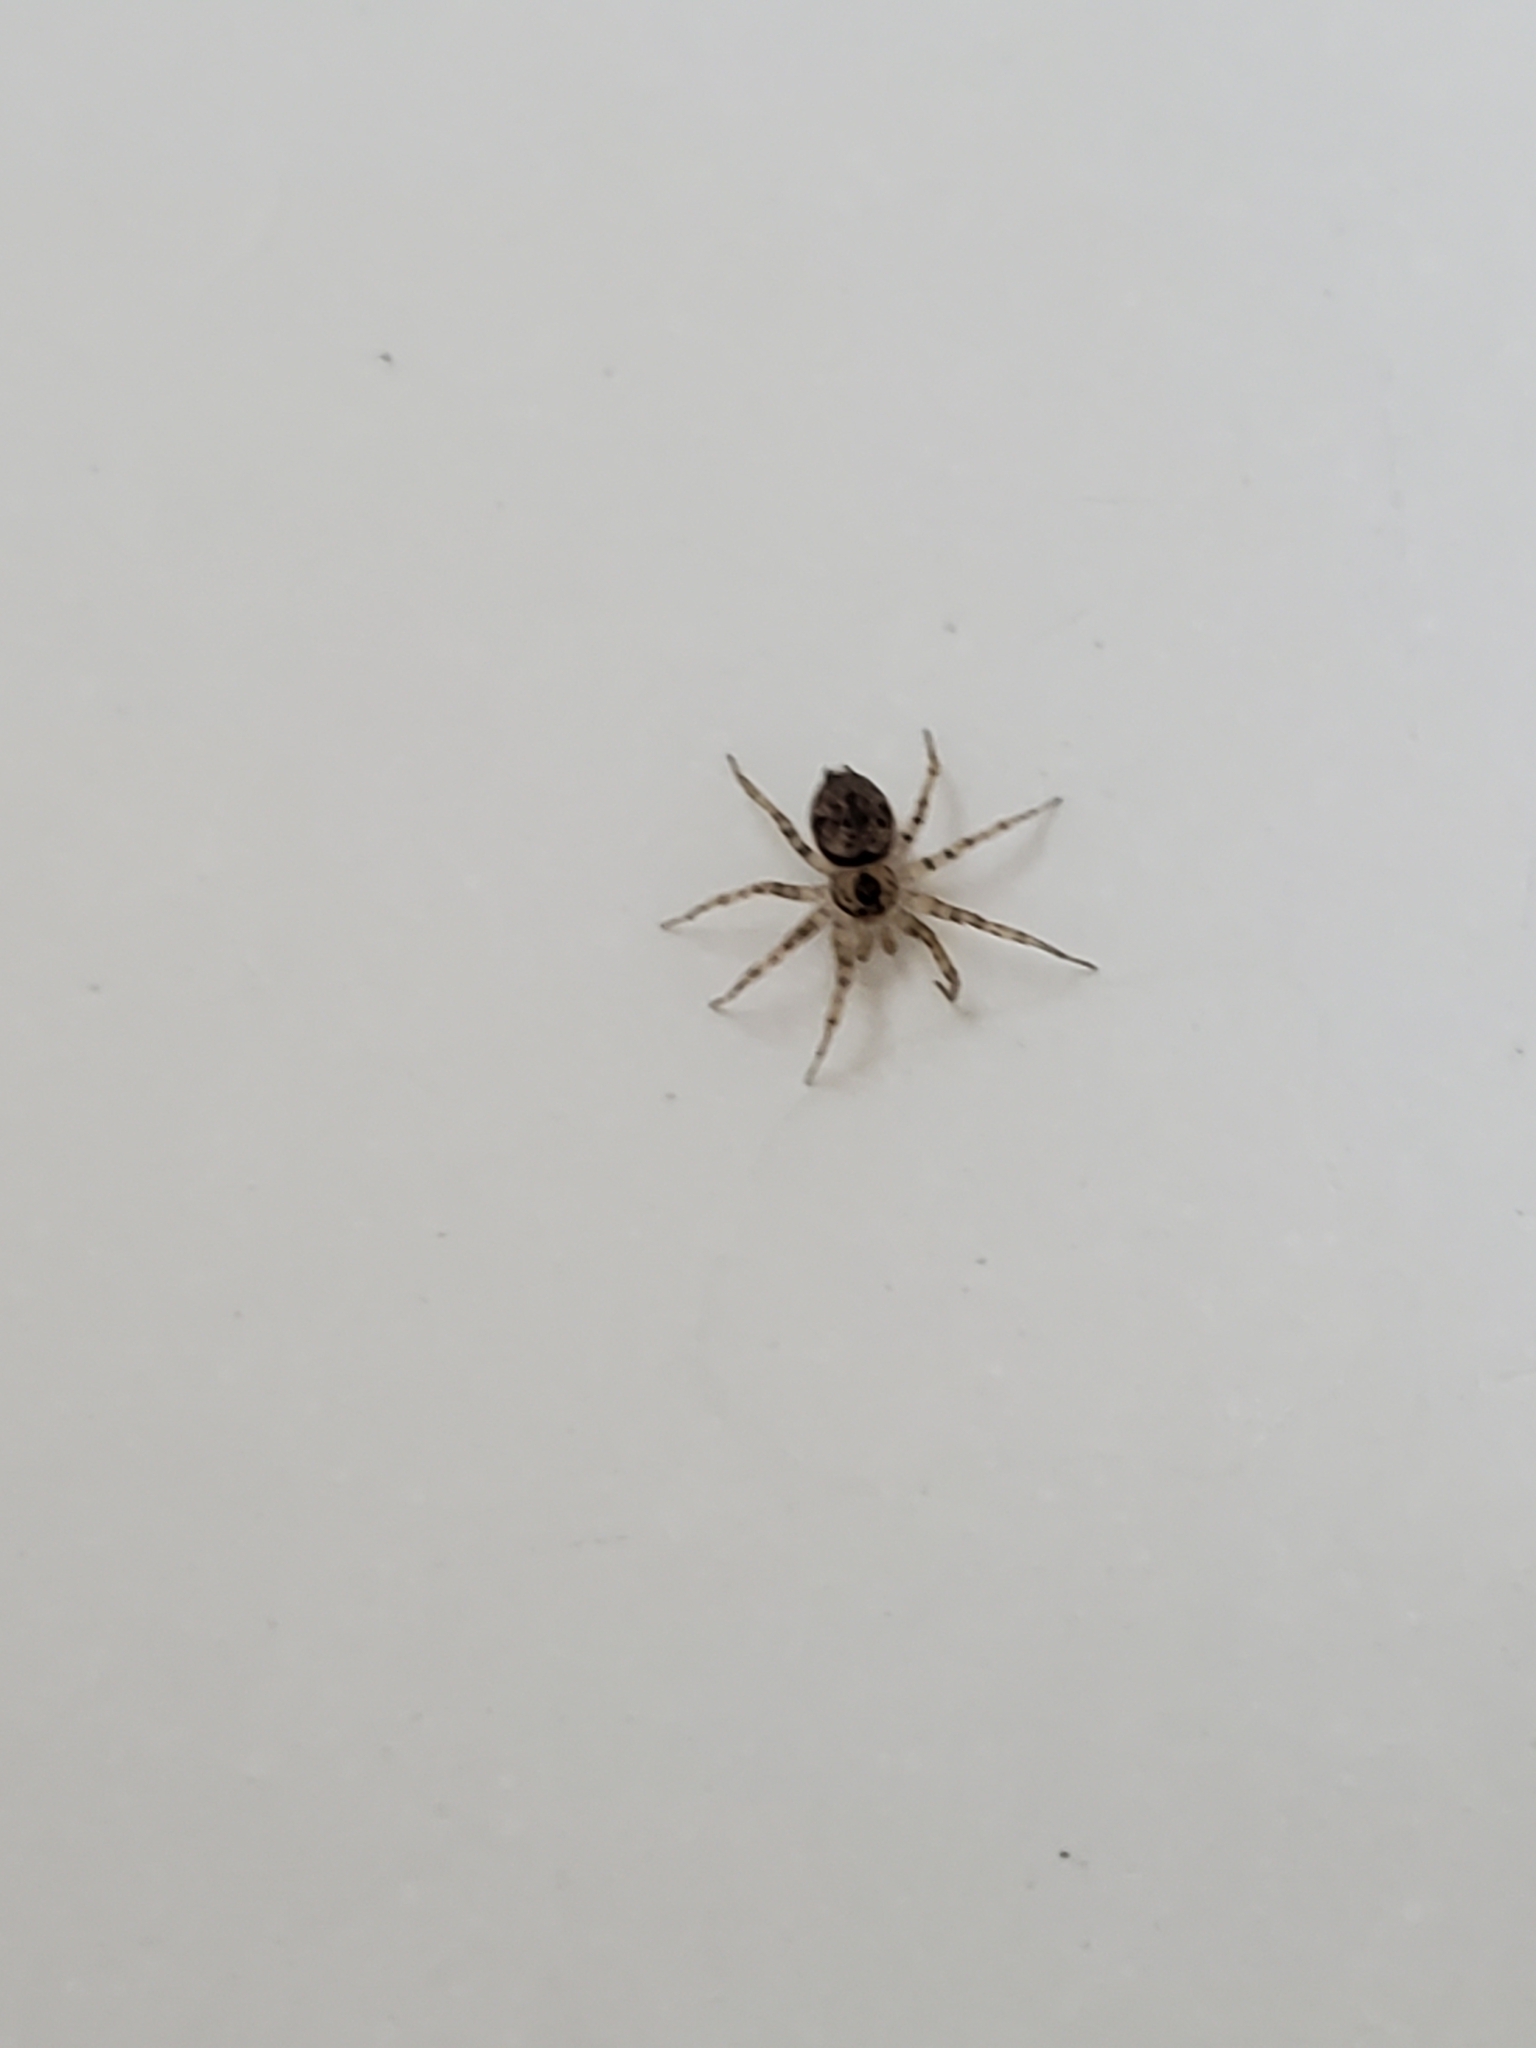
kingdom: Animalia
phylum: Arthropoda
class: Arachnida
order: Araneae
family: Oecobiidae
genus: Oecobius
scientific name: Oecobius navus
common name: Flatmesh weaver
